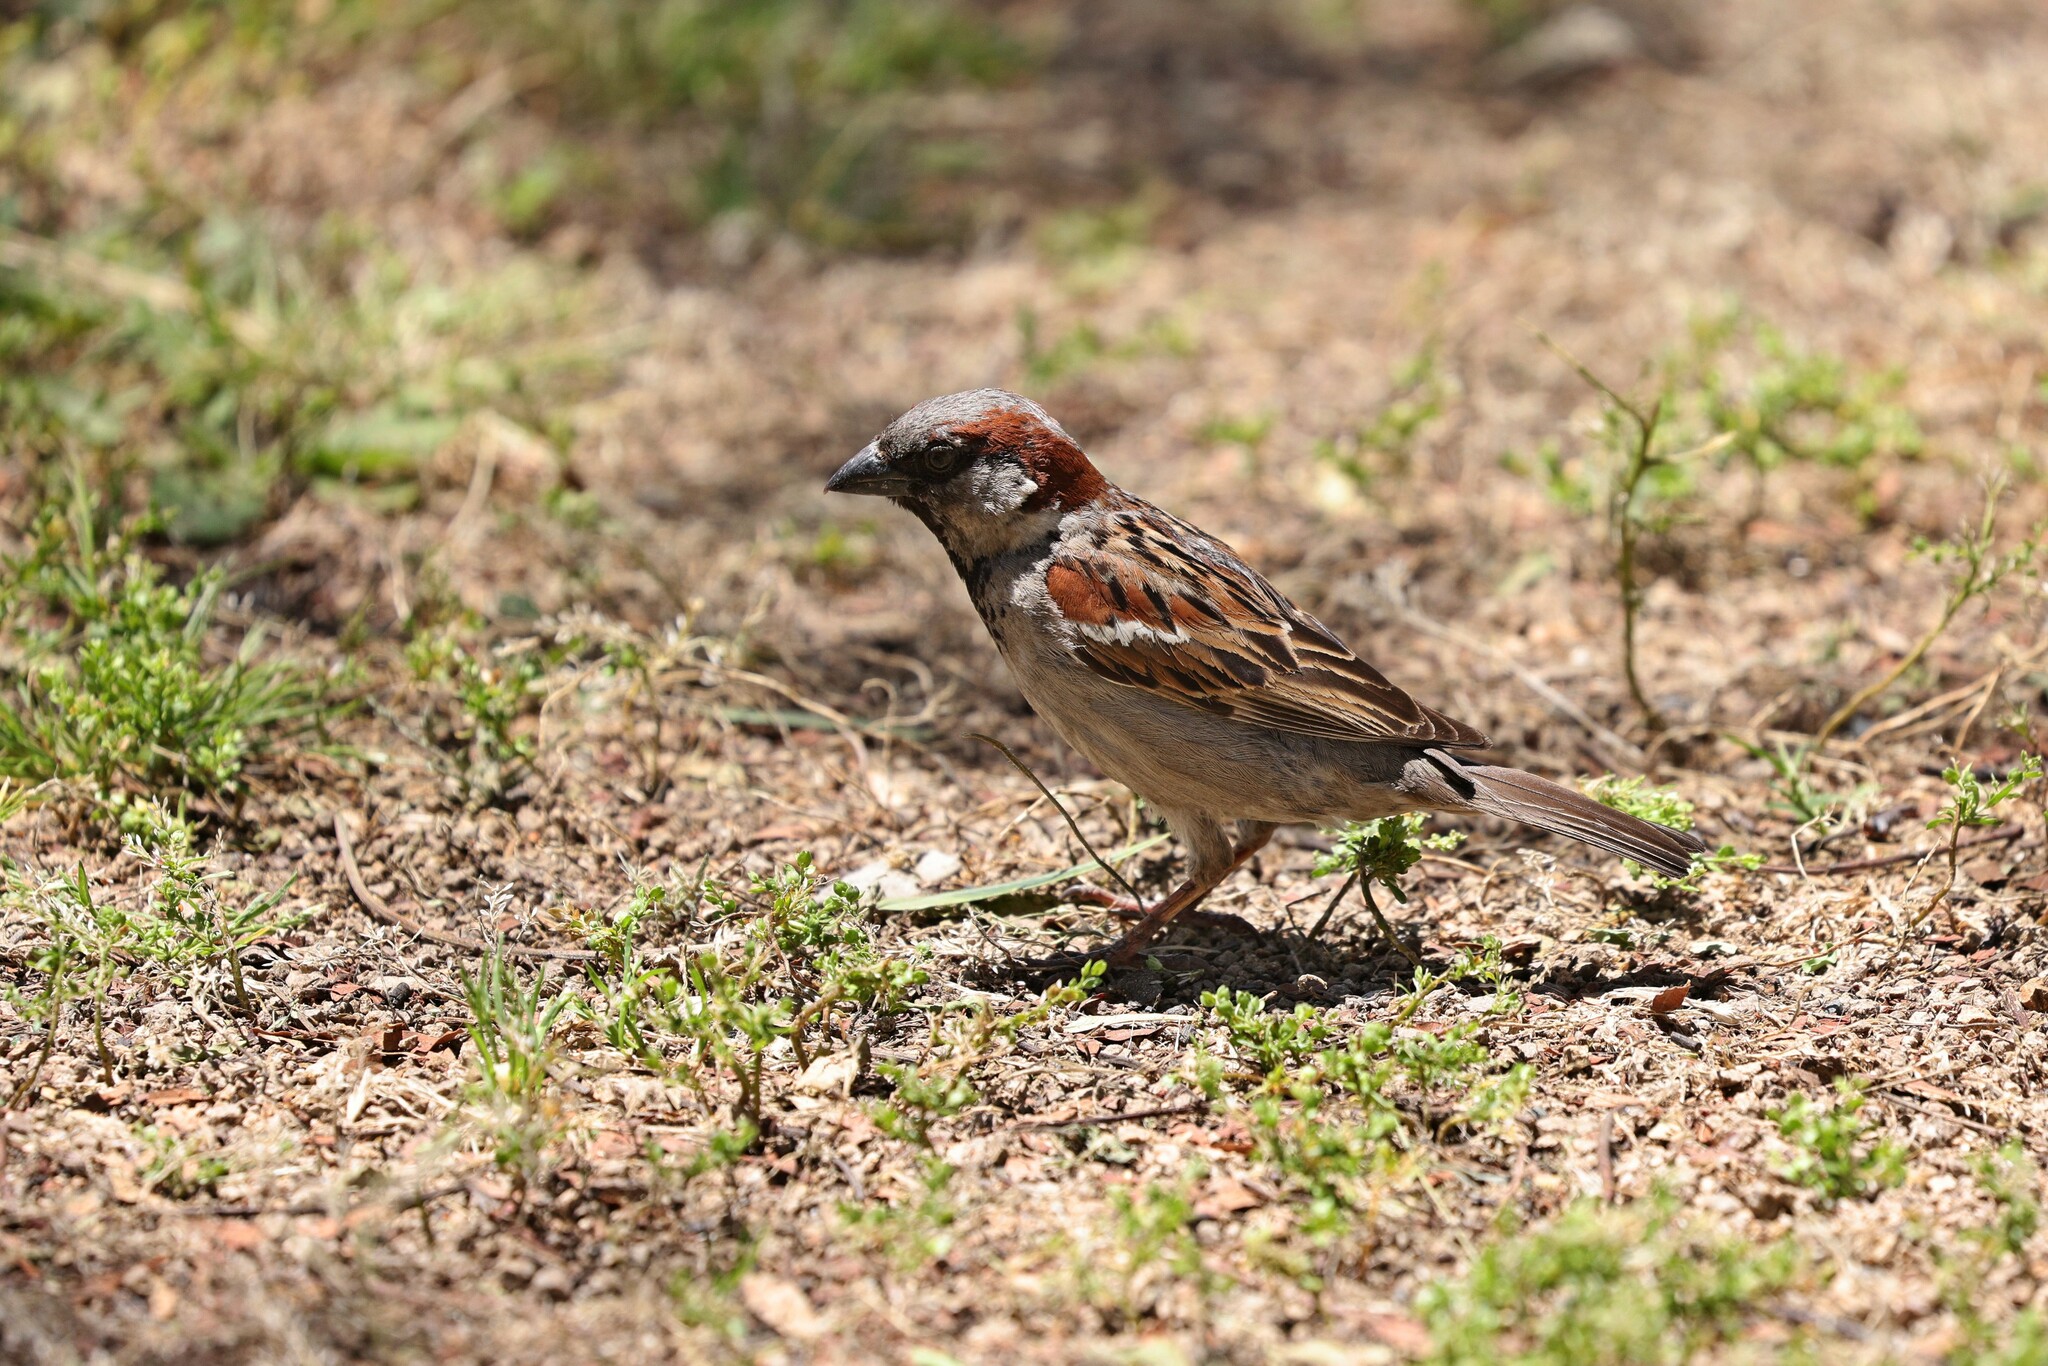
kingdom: Animalia
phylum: Chordata
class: Aves
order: Passeriformes
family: Passeridae
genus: Passer
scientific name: Passer domesticus
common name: House sparrow
